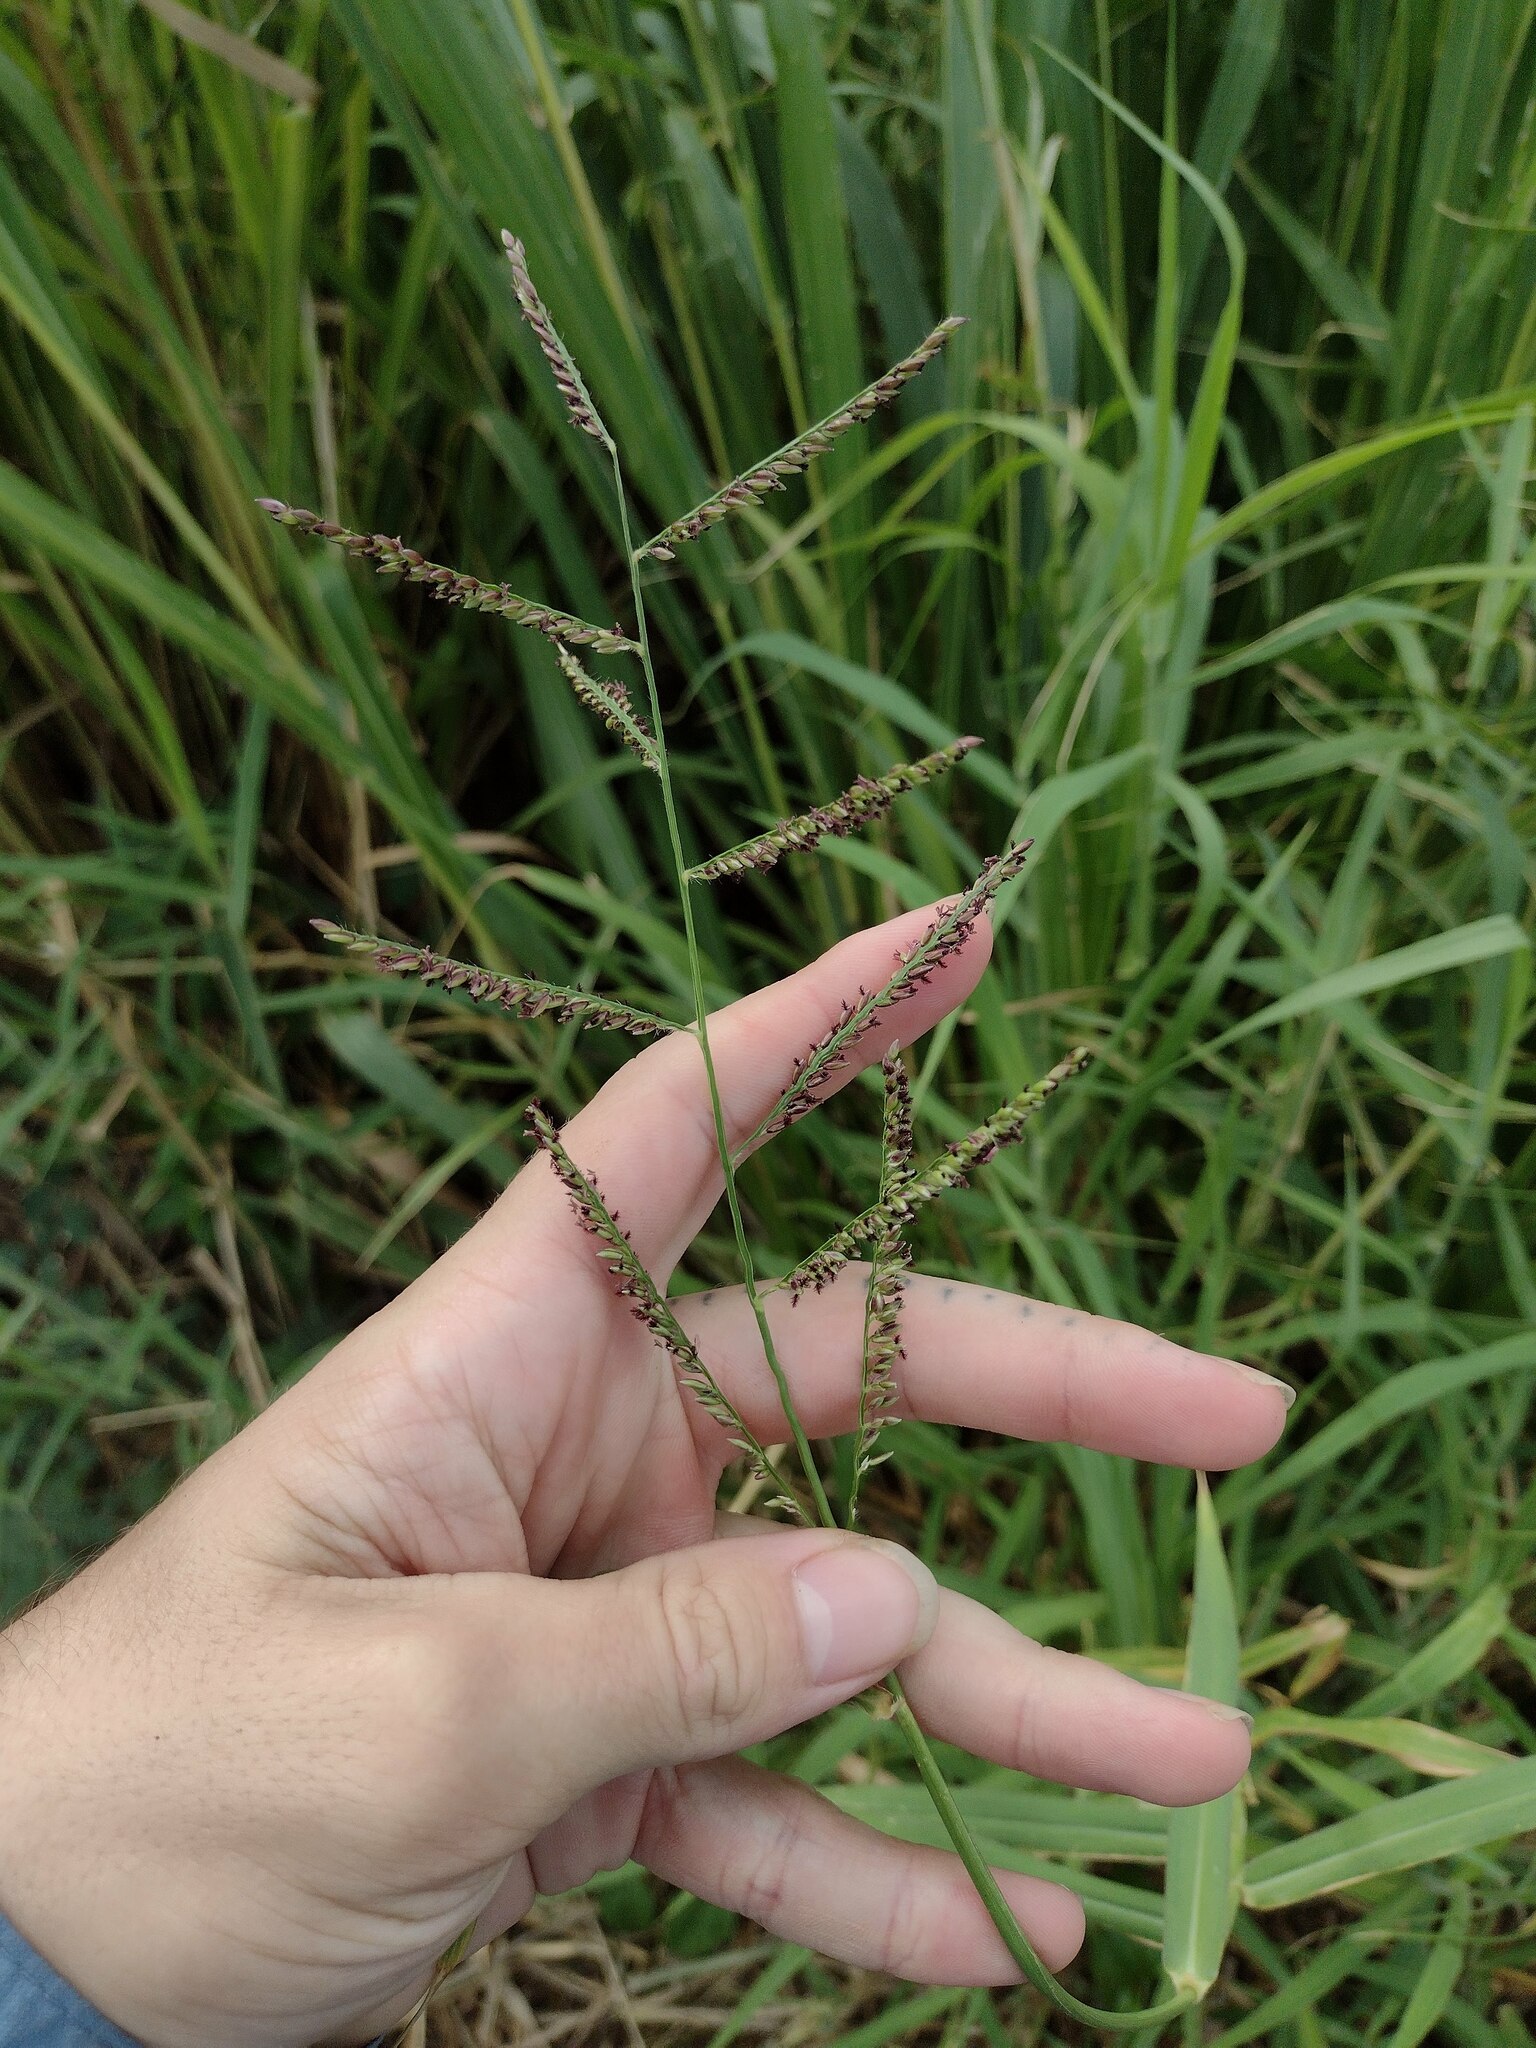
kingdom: Plantae
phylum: Tracheophyta
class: Liliopsida
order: Poales
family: Poaceae
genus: Urochloa
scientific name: Urochloa mutica
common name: Para grass
